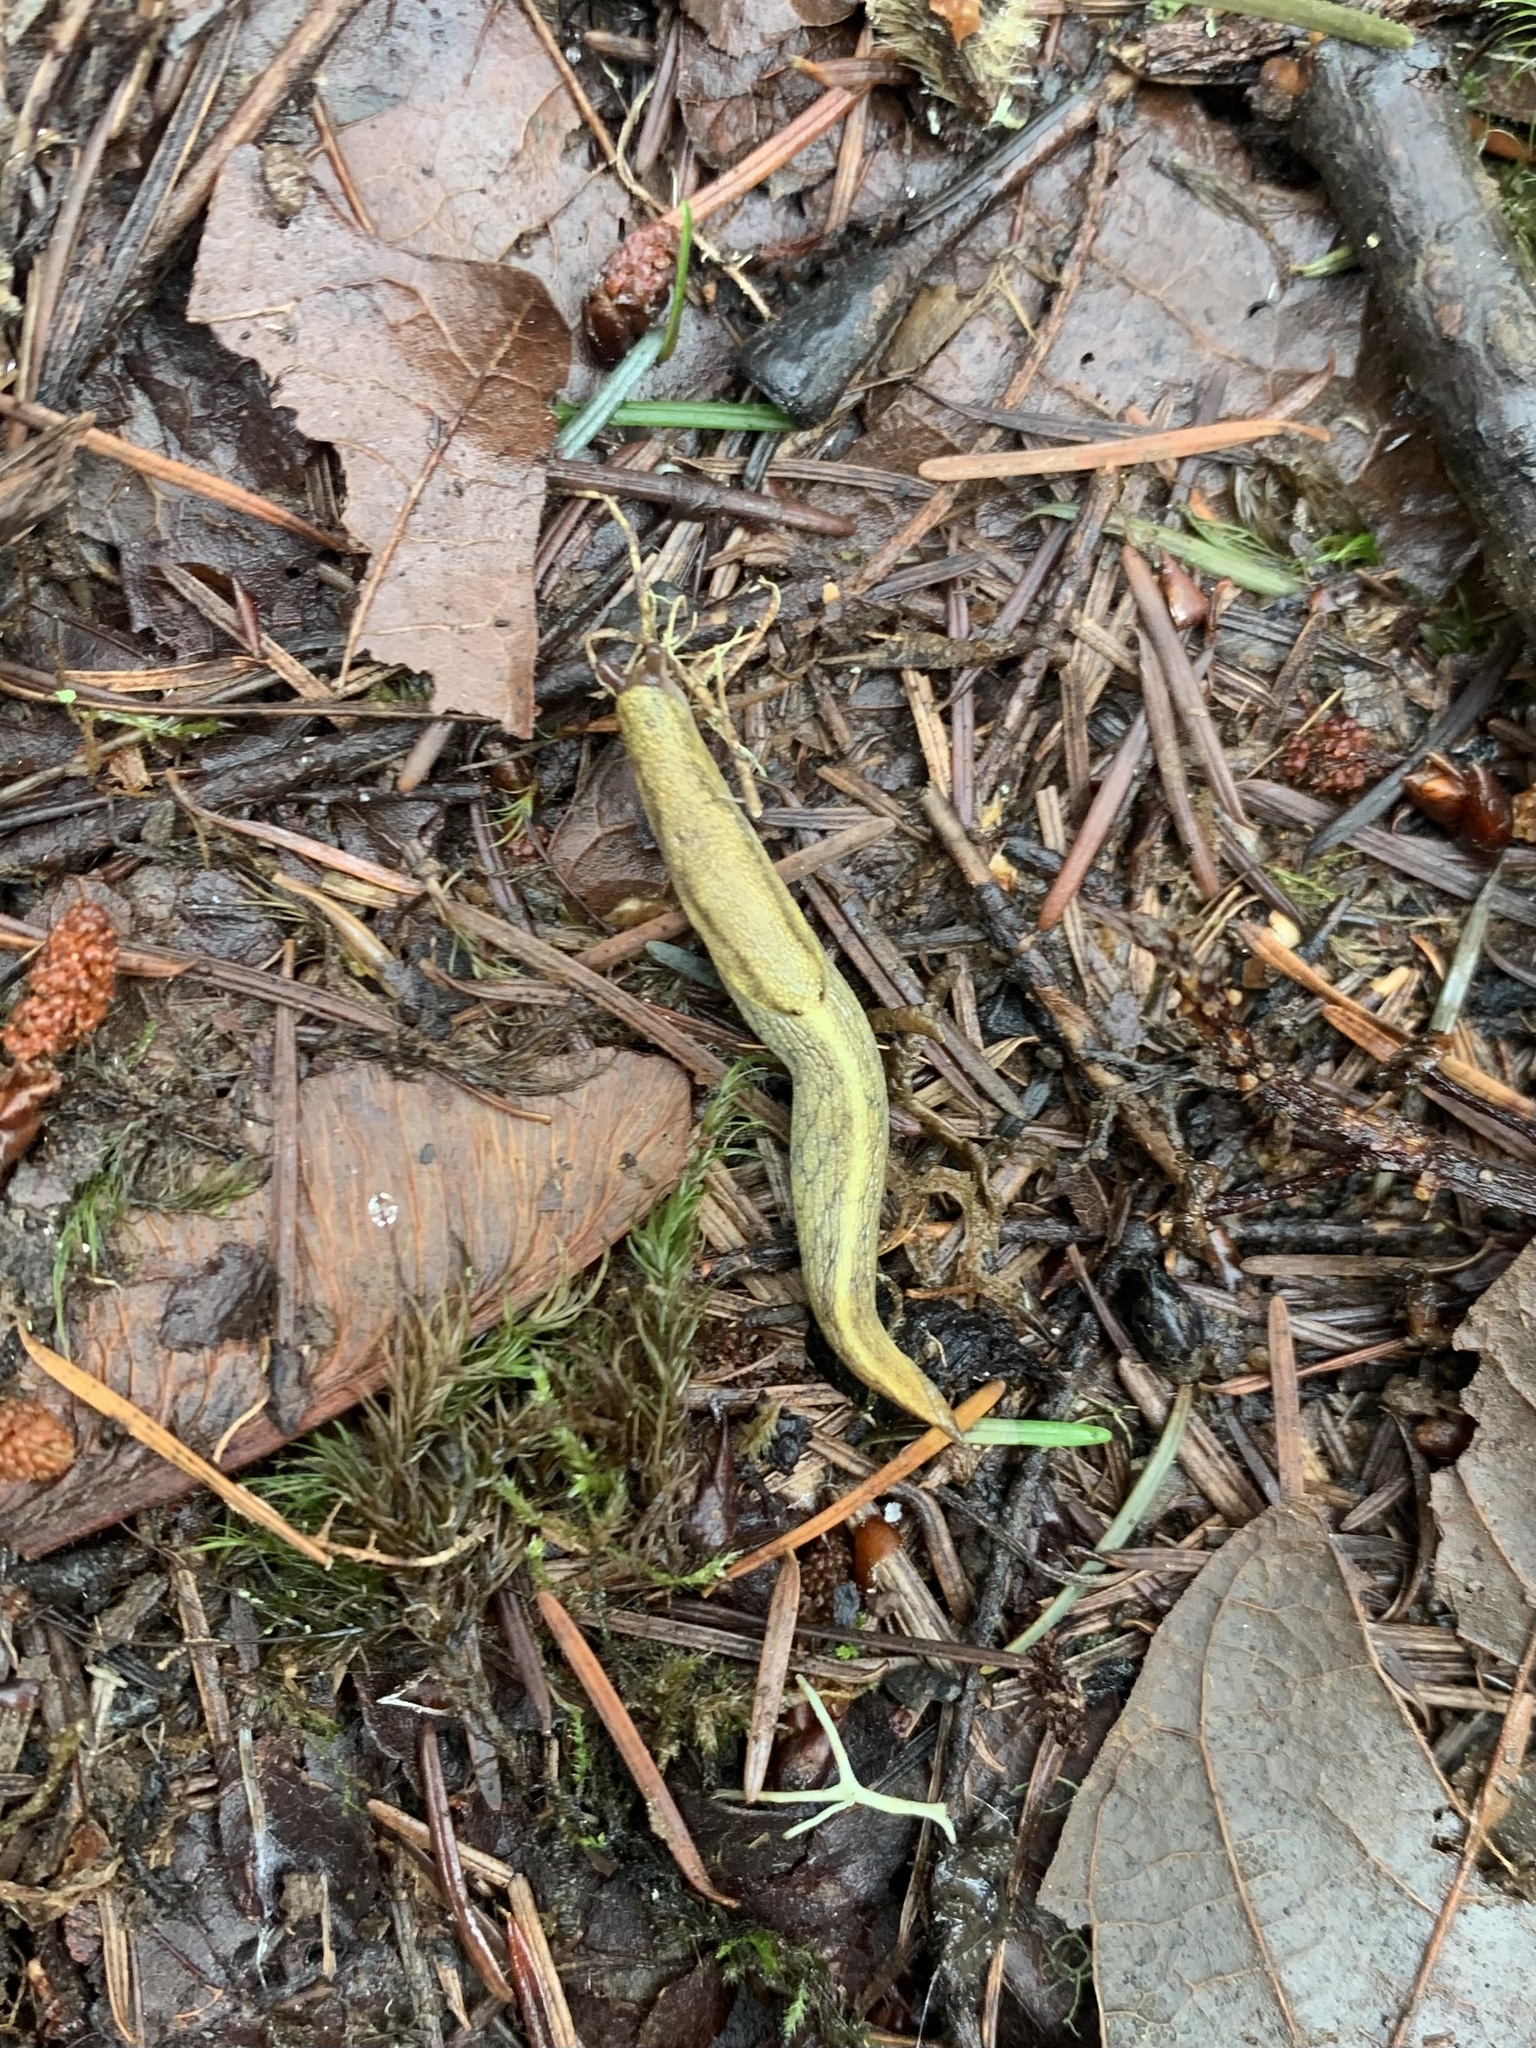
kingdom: Animalia
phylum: Mollusca
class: Gastropoda
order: Stylommatophora
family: Ariolimacidae
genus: Prophysaon
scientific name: Prophysaon foliolatum
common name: Yellow-bordered taildropper
